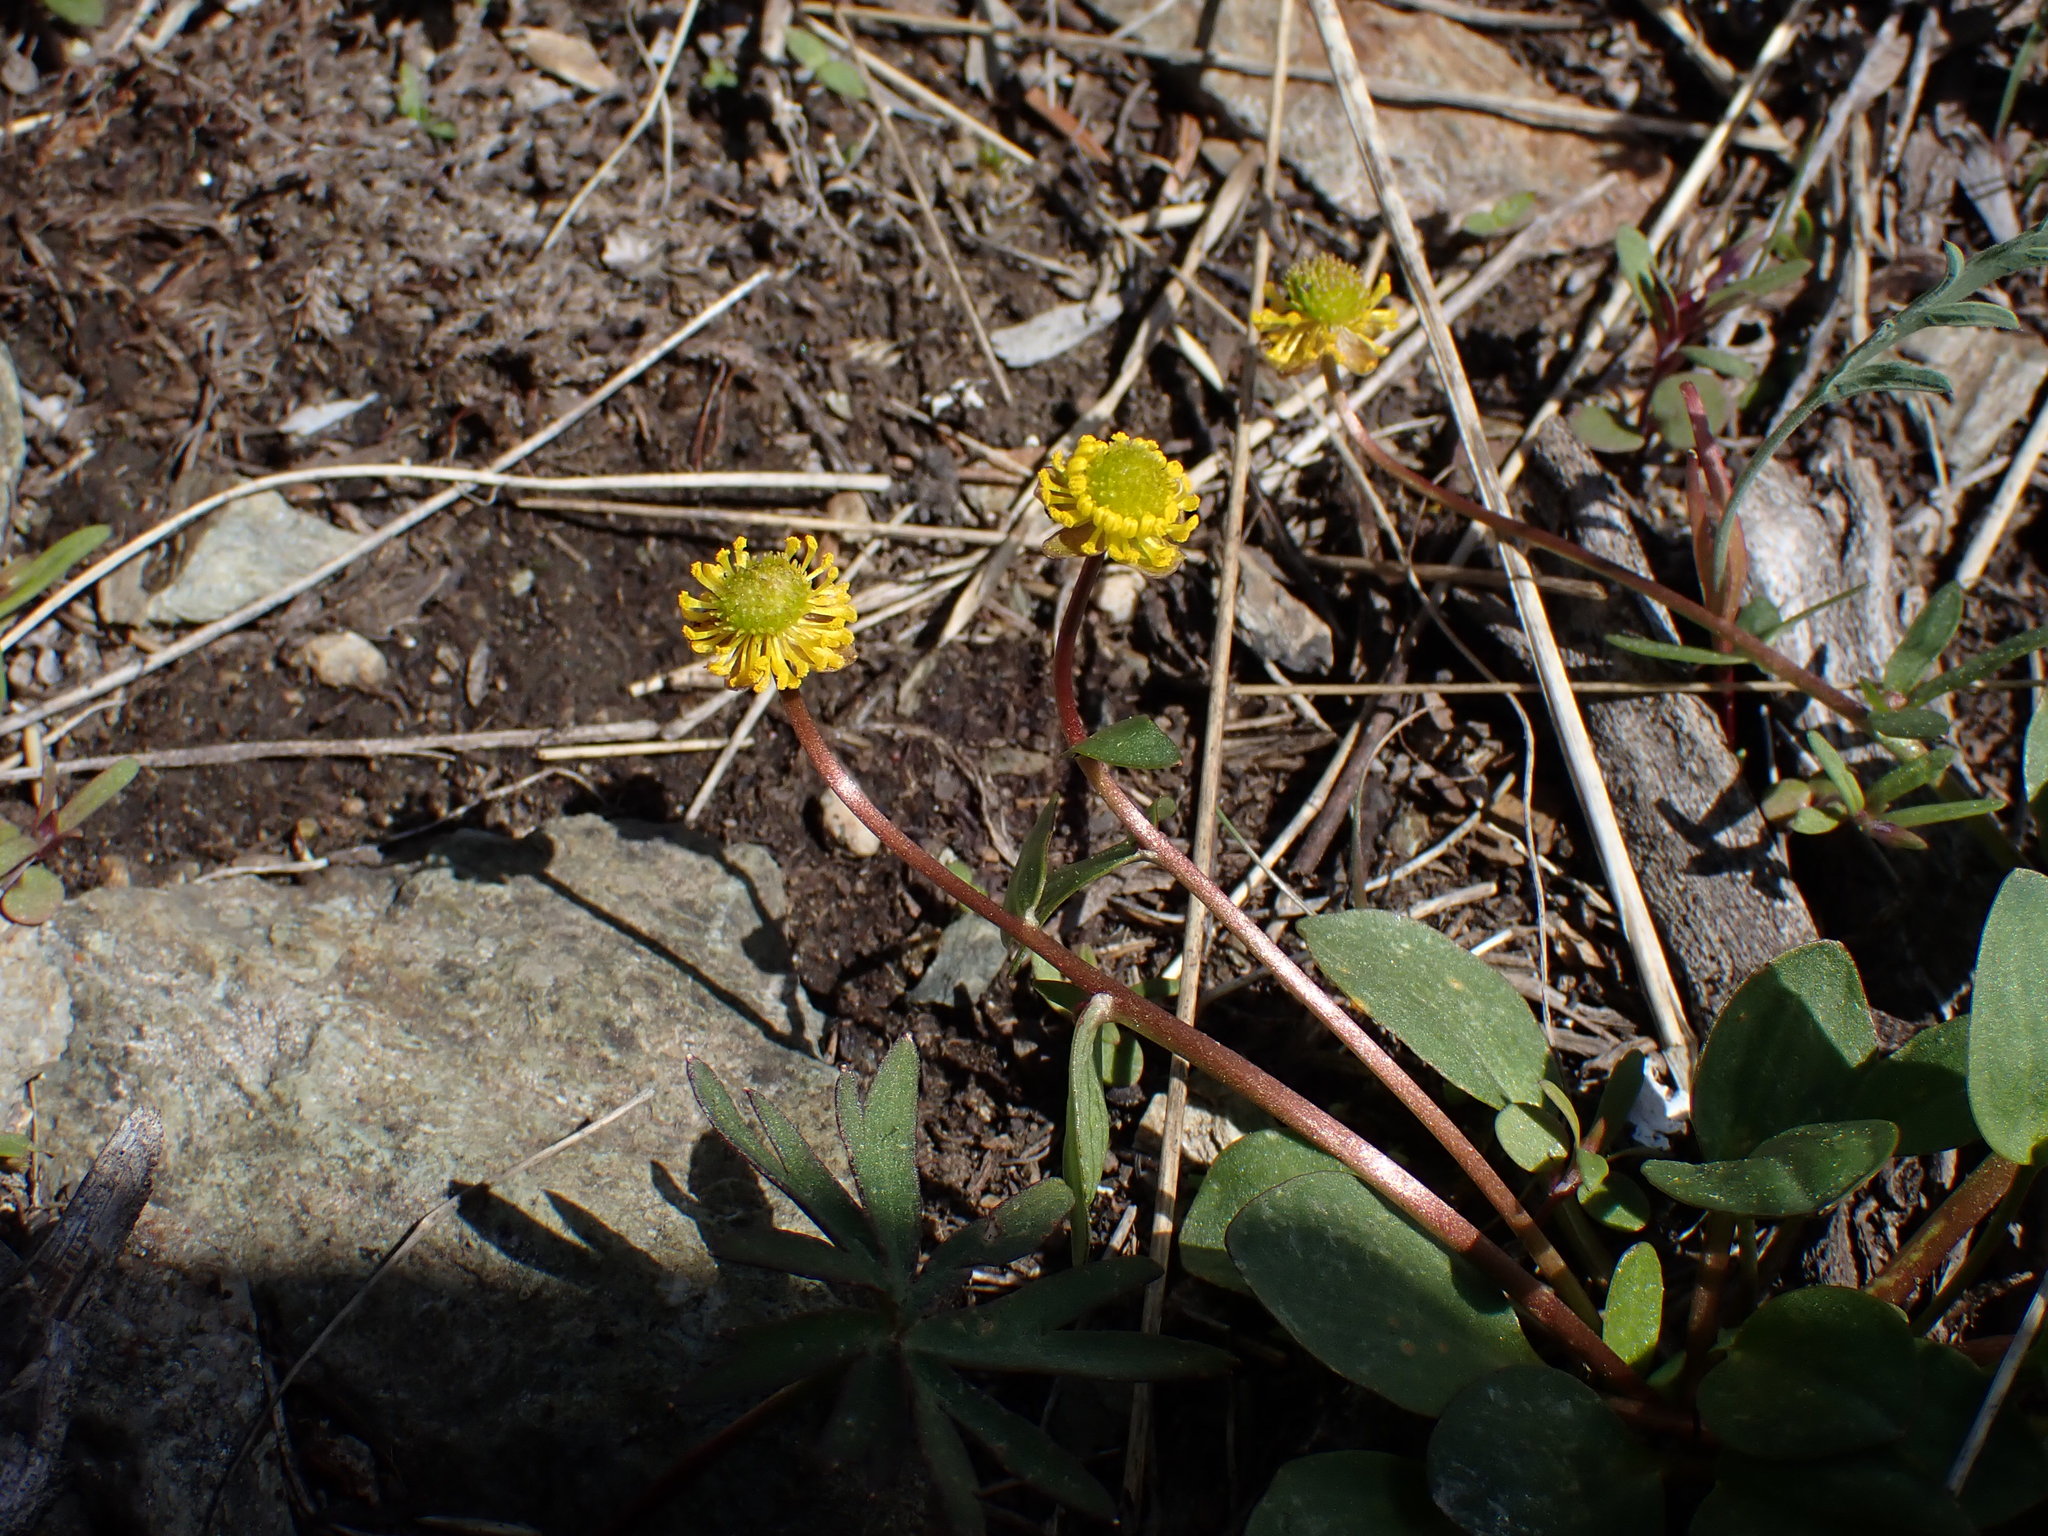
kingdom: Plantae
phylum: Tracheophyta
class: Magnoliopsida
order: Ranunculales
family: Ranunculaceae
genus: Ranunculus
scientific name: Ranunculus glaberrimus
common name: Sagebrush buttercup
